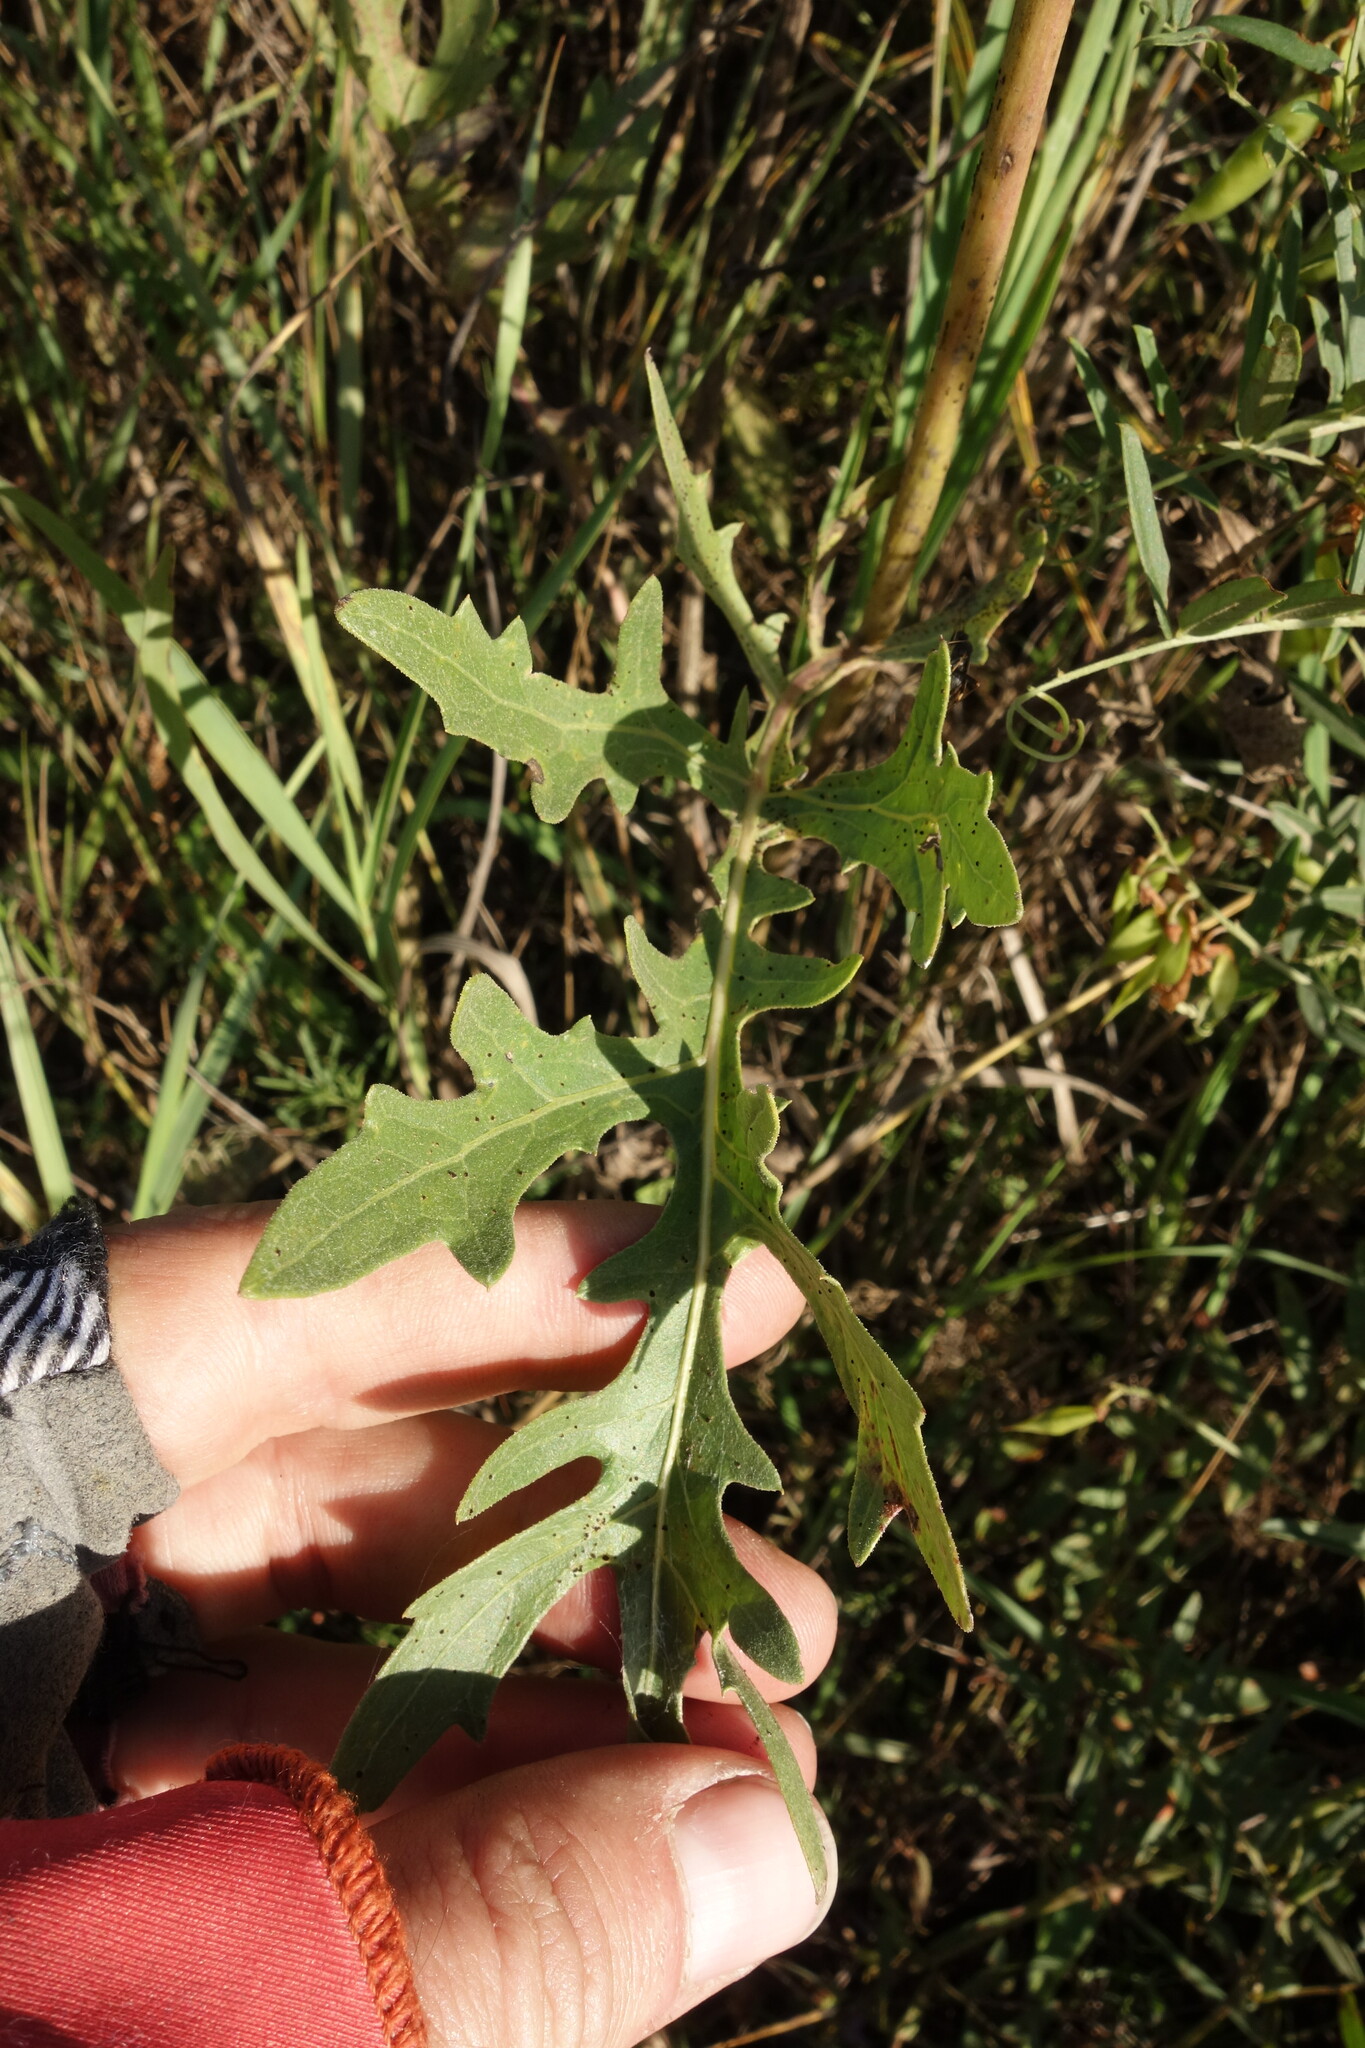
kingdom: Plantae
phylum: Tracheophyta
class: Magnoliopsida
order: Asterales
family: Asteraceae
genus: Leuzea
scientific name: Leuzea uniflora
